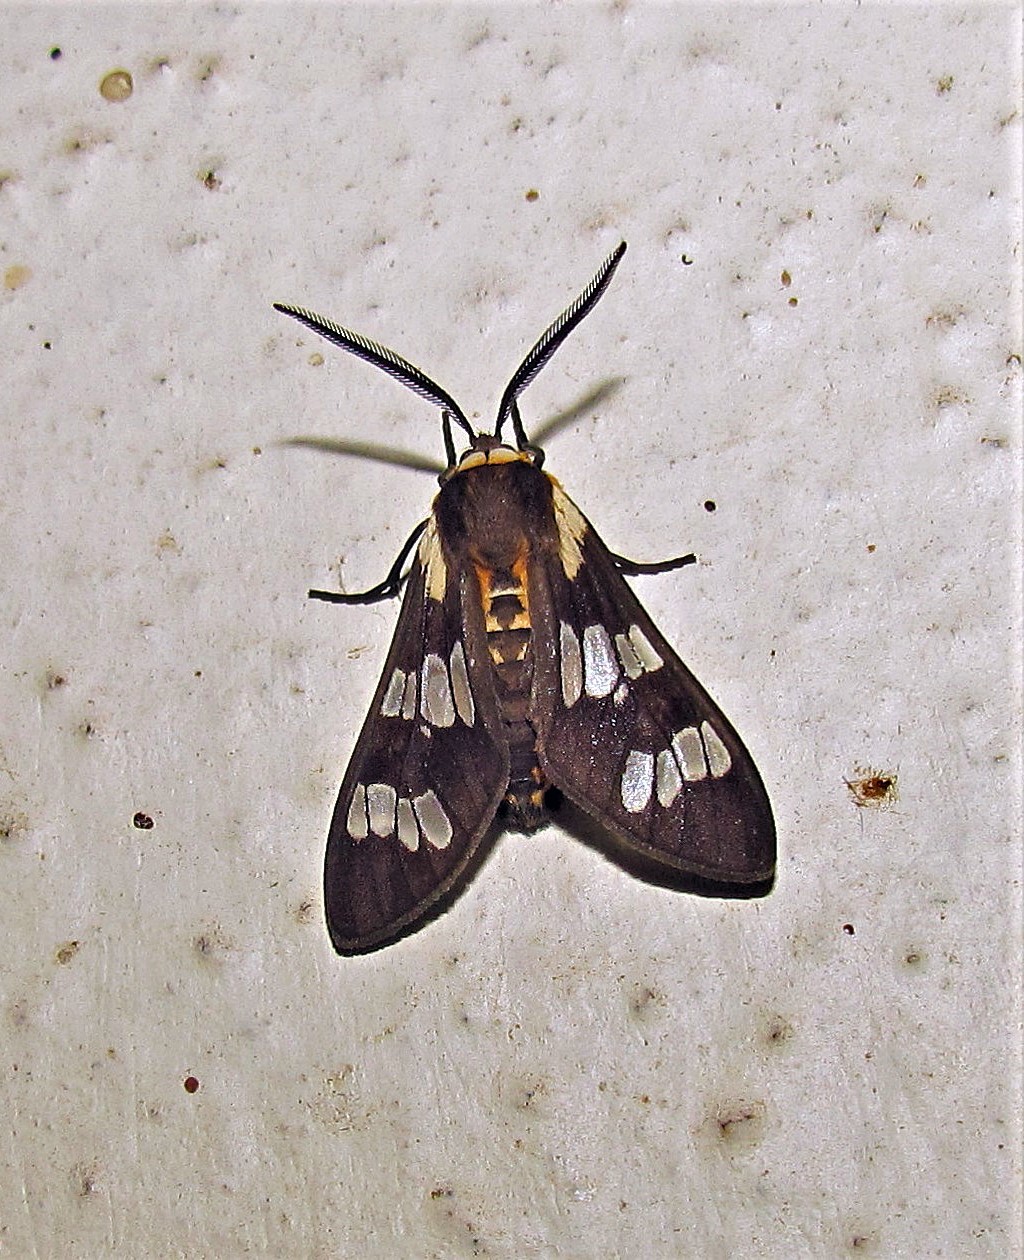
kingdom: Animalia
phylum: Arthropoda
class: Insecta
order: Lepidoptera
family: Erebidae
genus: Eurata
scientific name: Eurata
